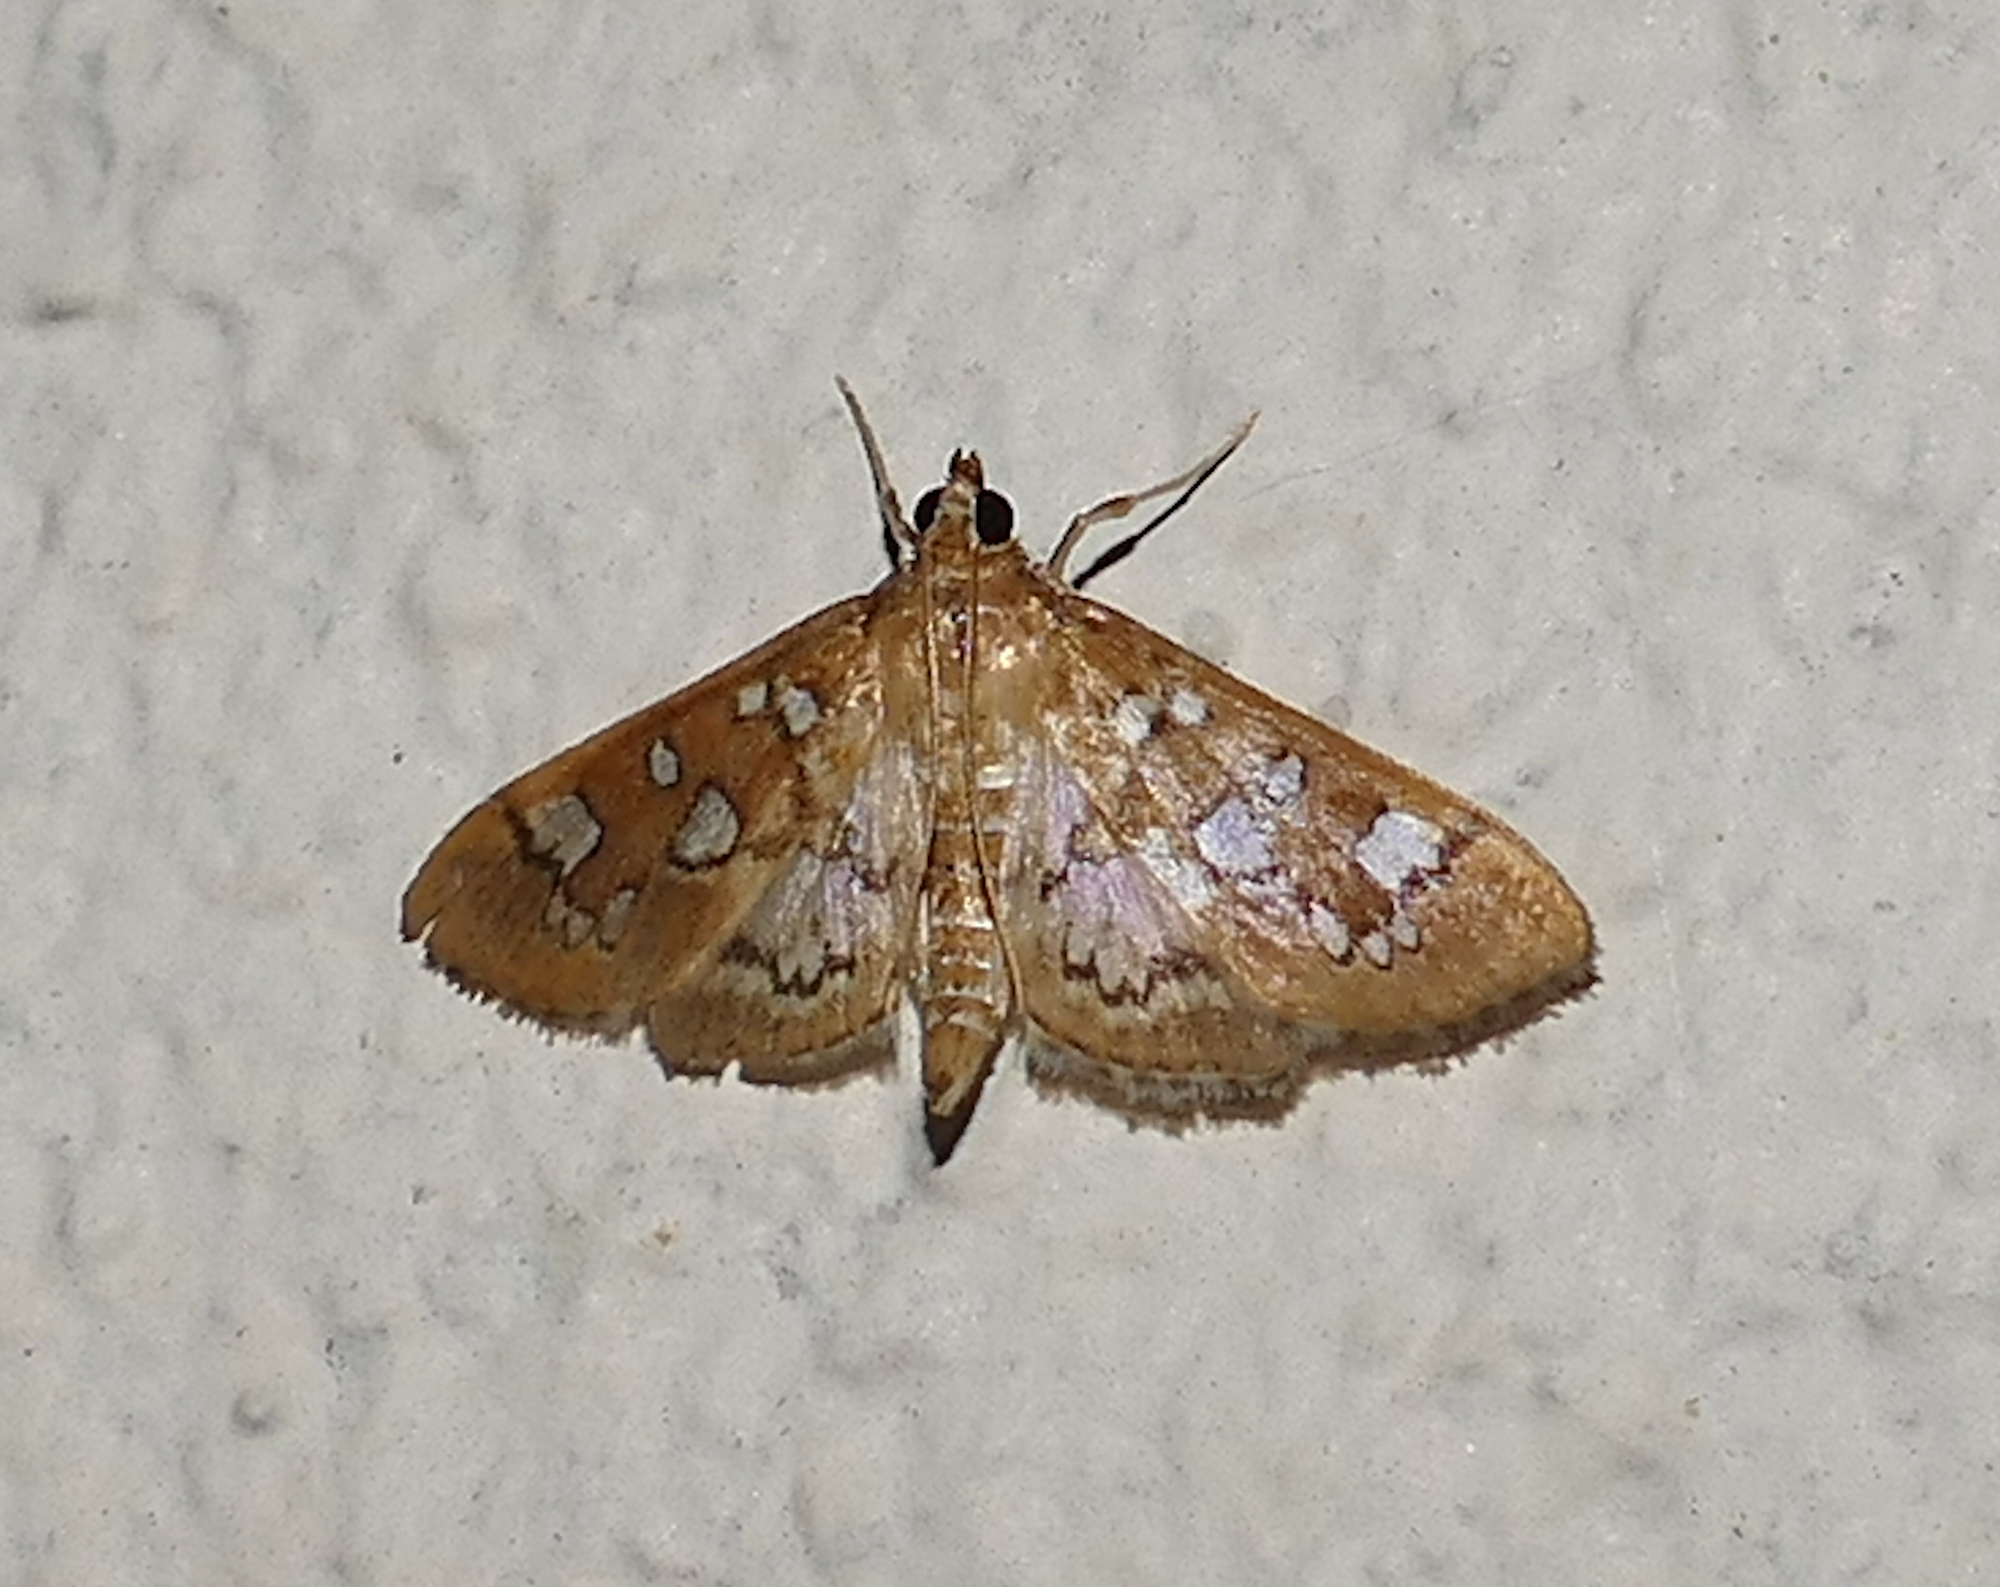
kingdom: Animalia
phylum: Arthropoda
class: Insecta
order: Lepidoptera
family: Crambidae
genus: Samea
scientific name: Samea baccatalis
